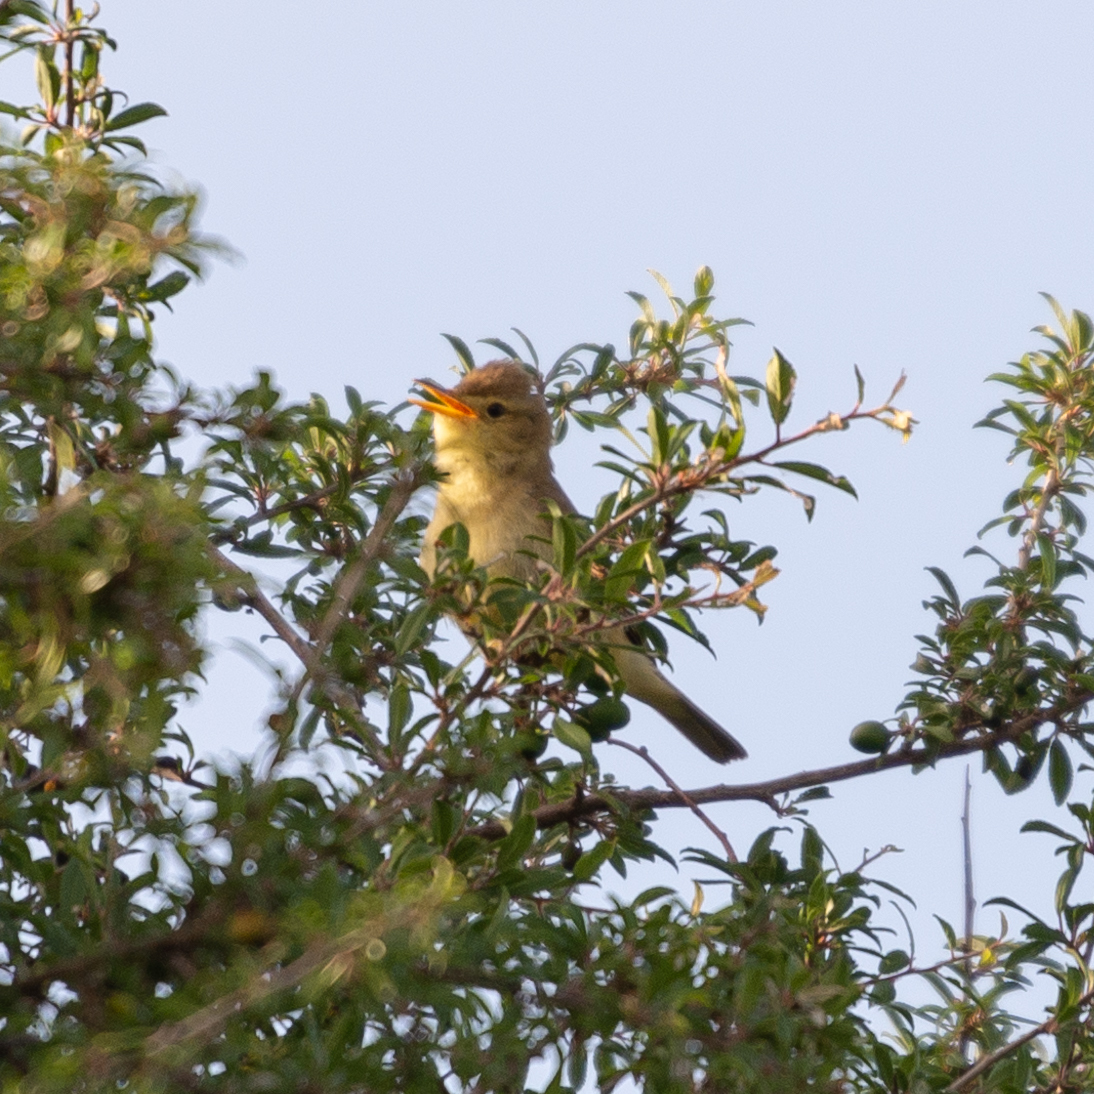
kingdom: Animalia
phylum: Chordata
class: Aves
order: Passeriformes
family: Acrocephalidae
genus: Hippolais
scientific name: Hippolais polyglotta
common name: Melodious warbler
